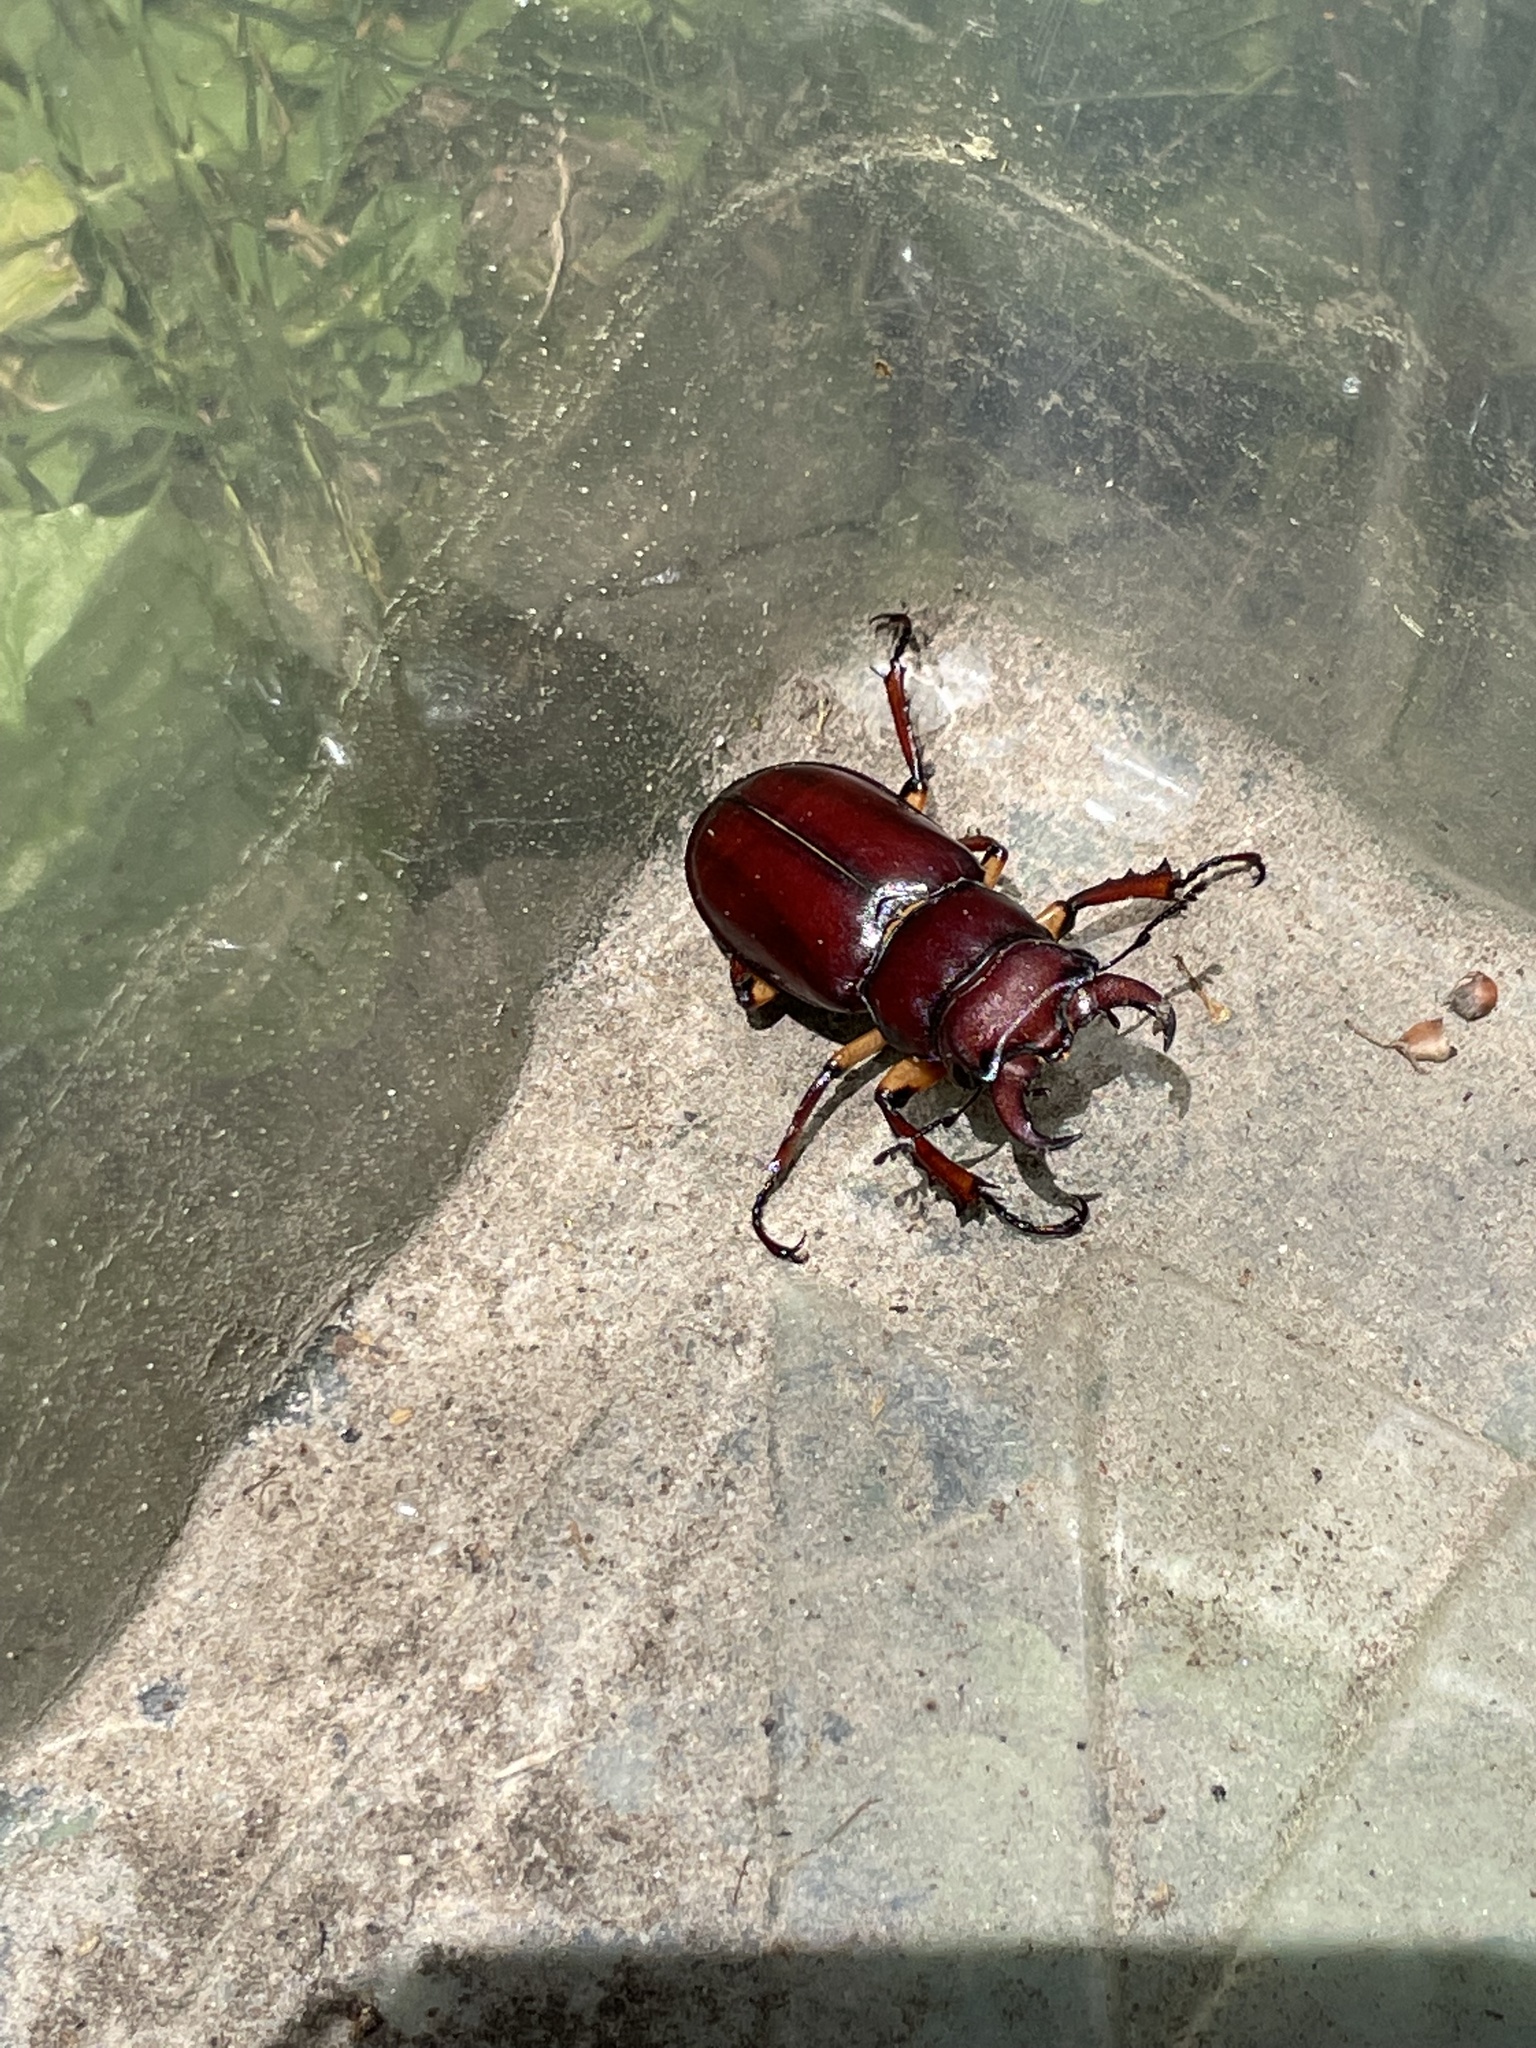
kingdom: Animalia
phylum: Arthropoda
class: Insecta
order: Coleoptera
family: Lucanidae
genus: Lucanus
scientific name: Lucanus capreolus
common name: Stag beetle
